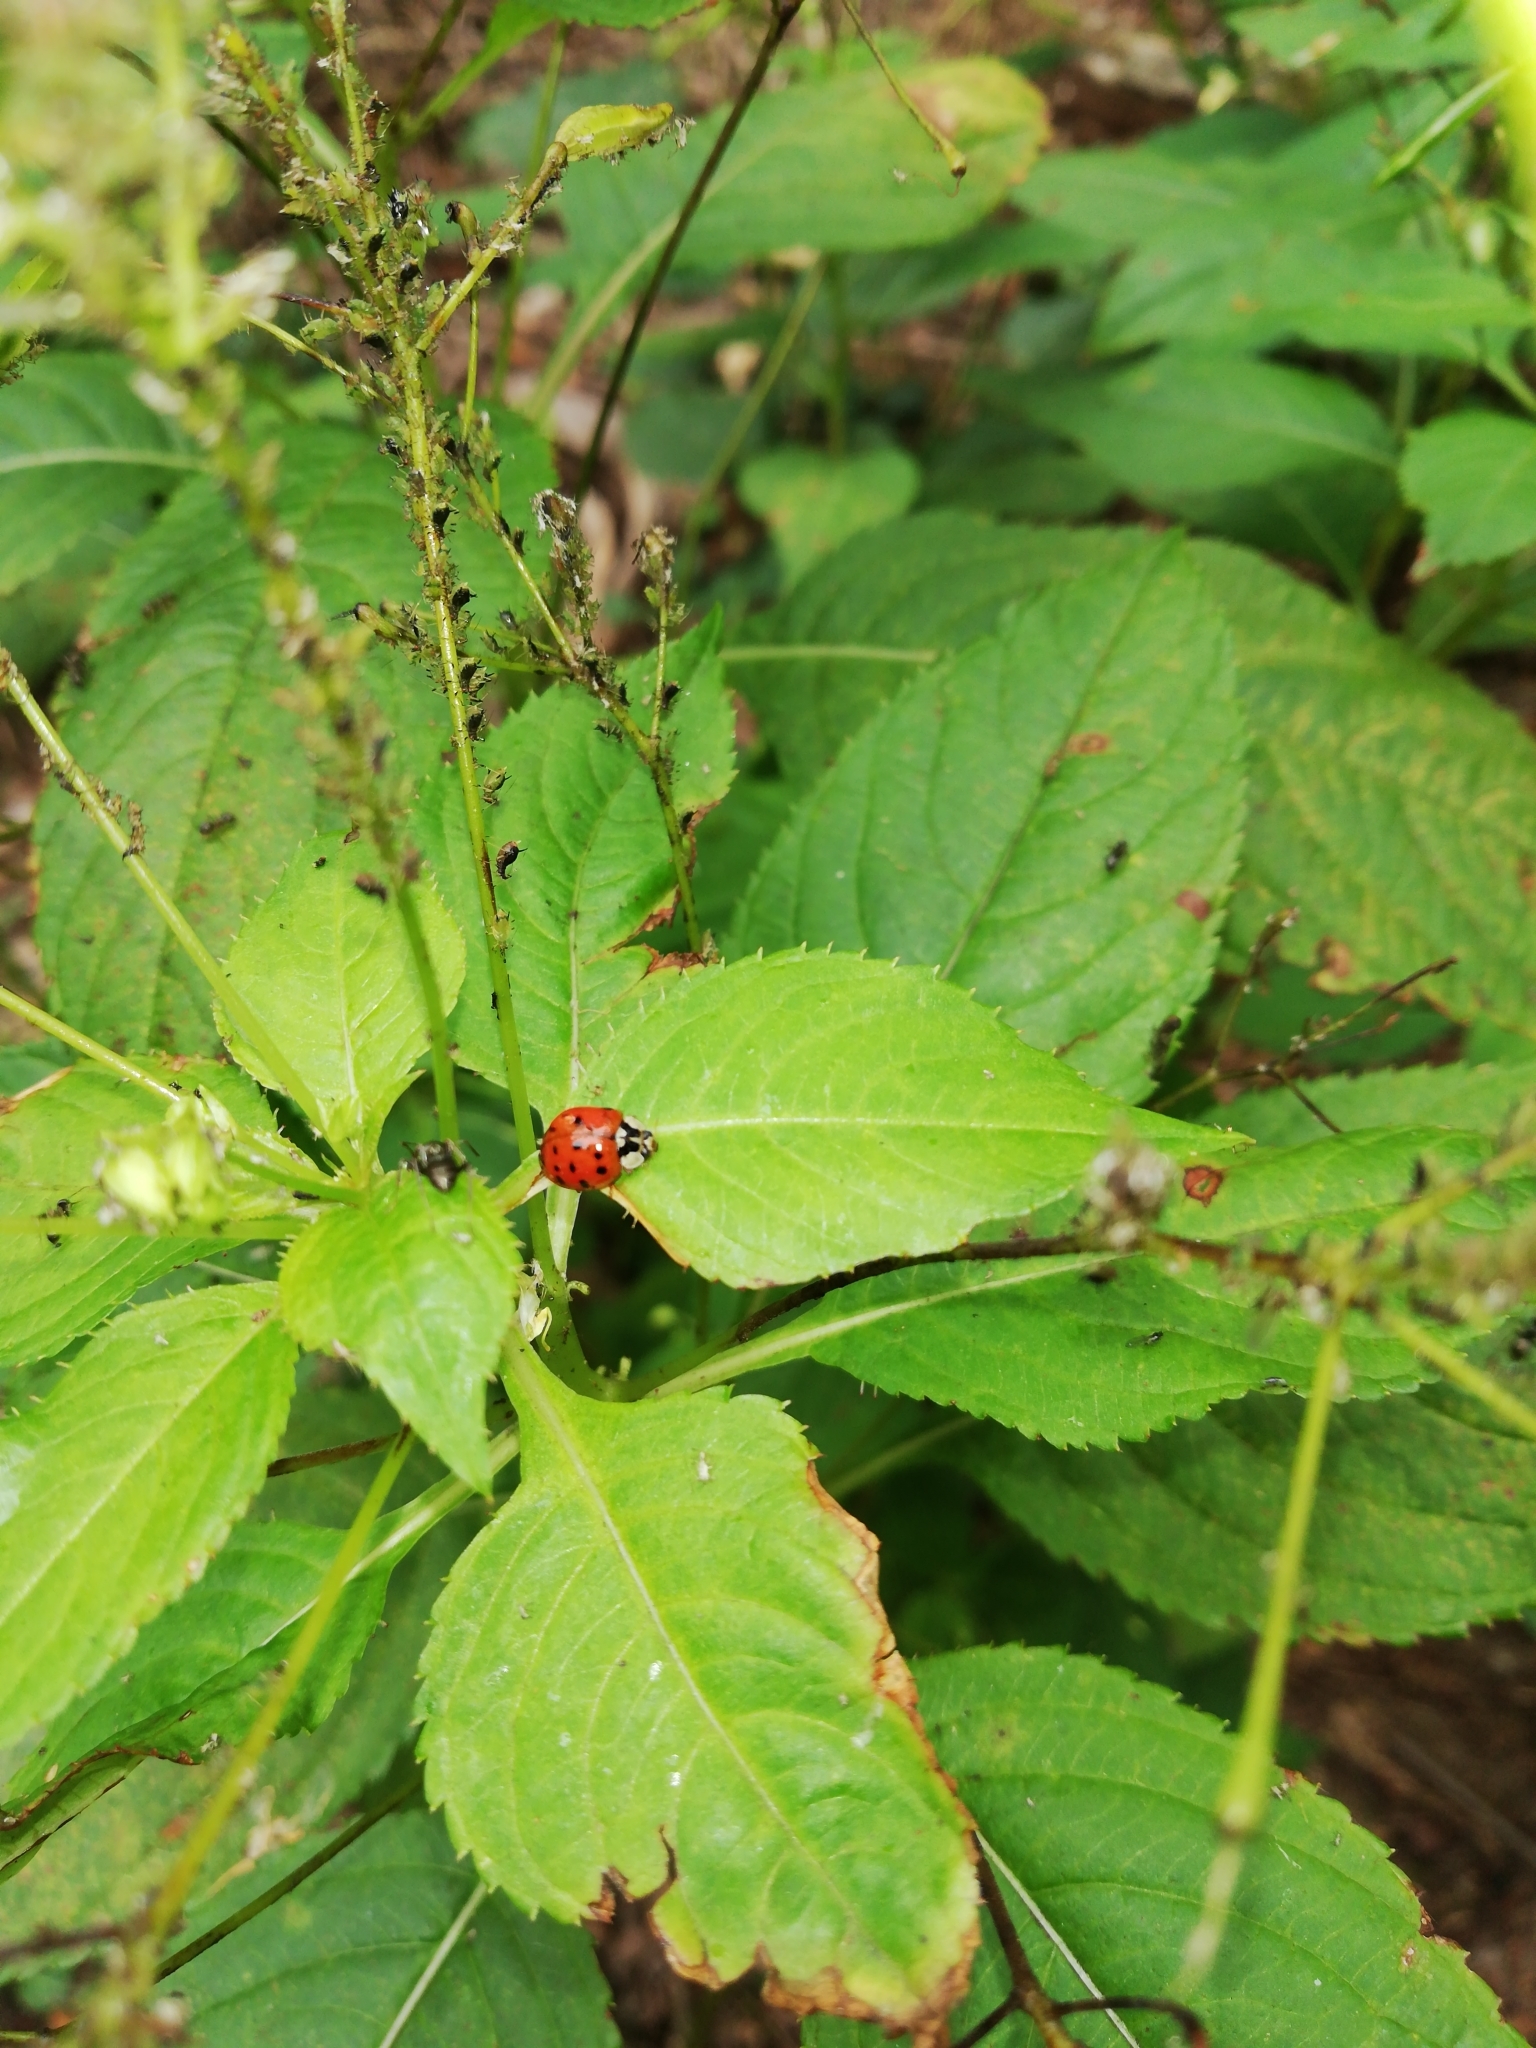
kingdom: Animalia
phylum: Arthropoda
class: Insecta
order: Coleoptera
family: Coccinellidae
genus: Harmonia
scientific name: Harmonia axyridis
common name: Harlequin ladybird
